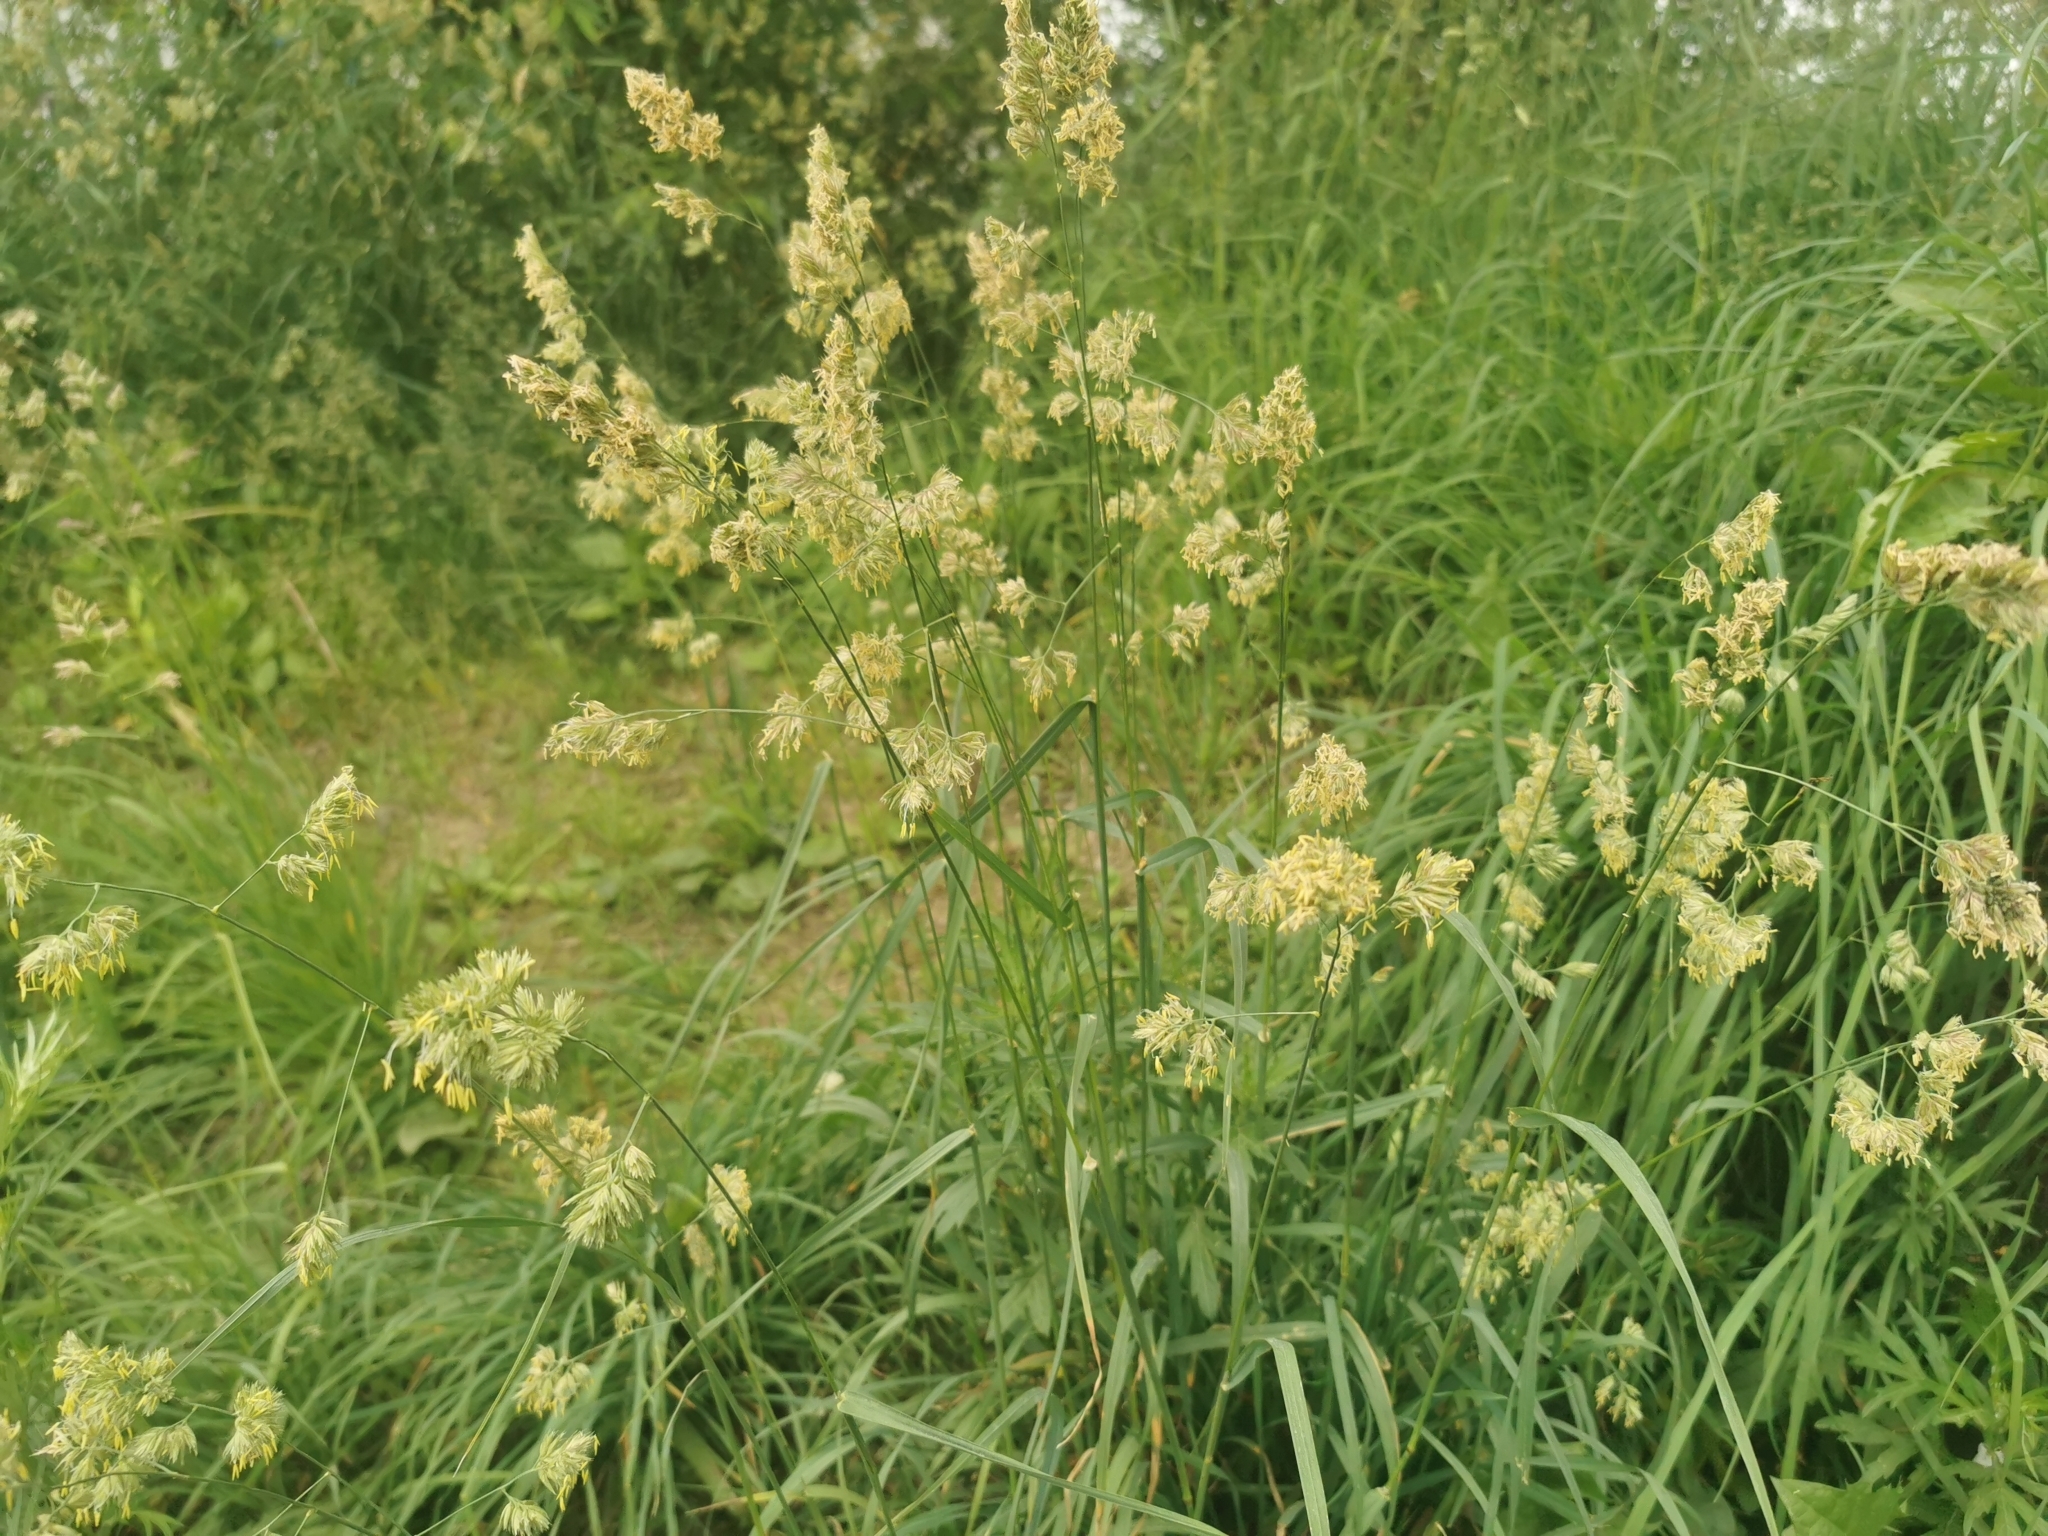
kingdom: Plantae
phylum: Tracheophyta
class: Liliopsida
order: Poales
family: Poaceae
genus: Dactylis
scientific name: Dactylis glomerata
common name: Orchardgrass
